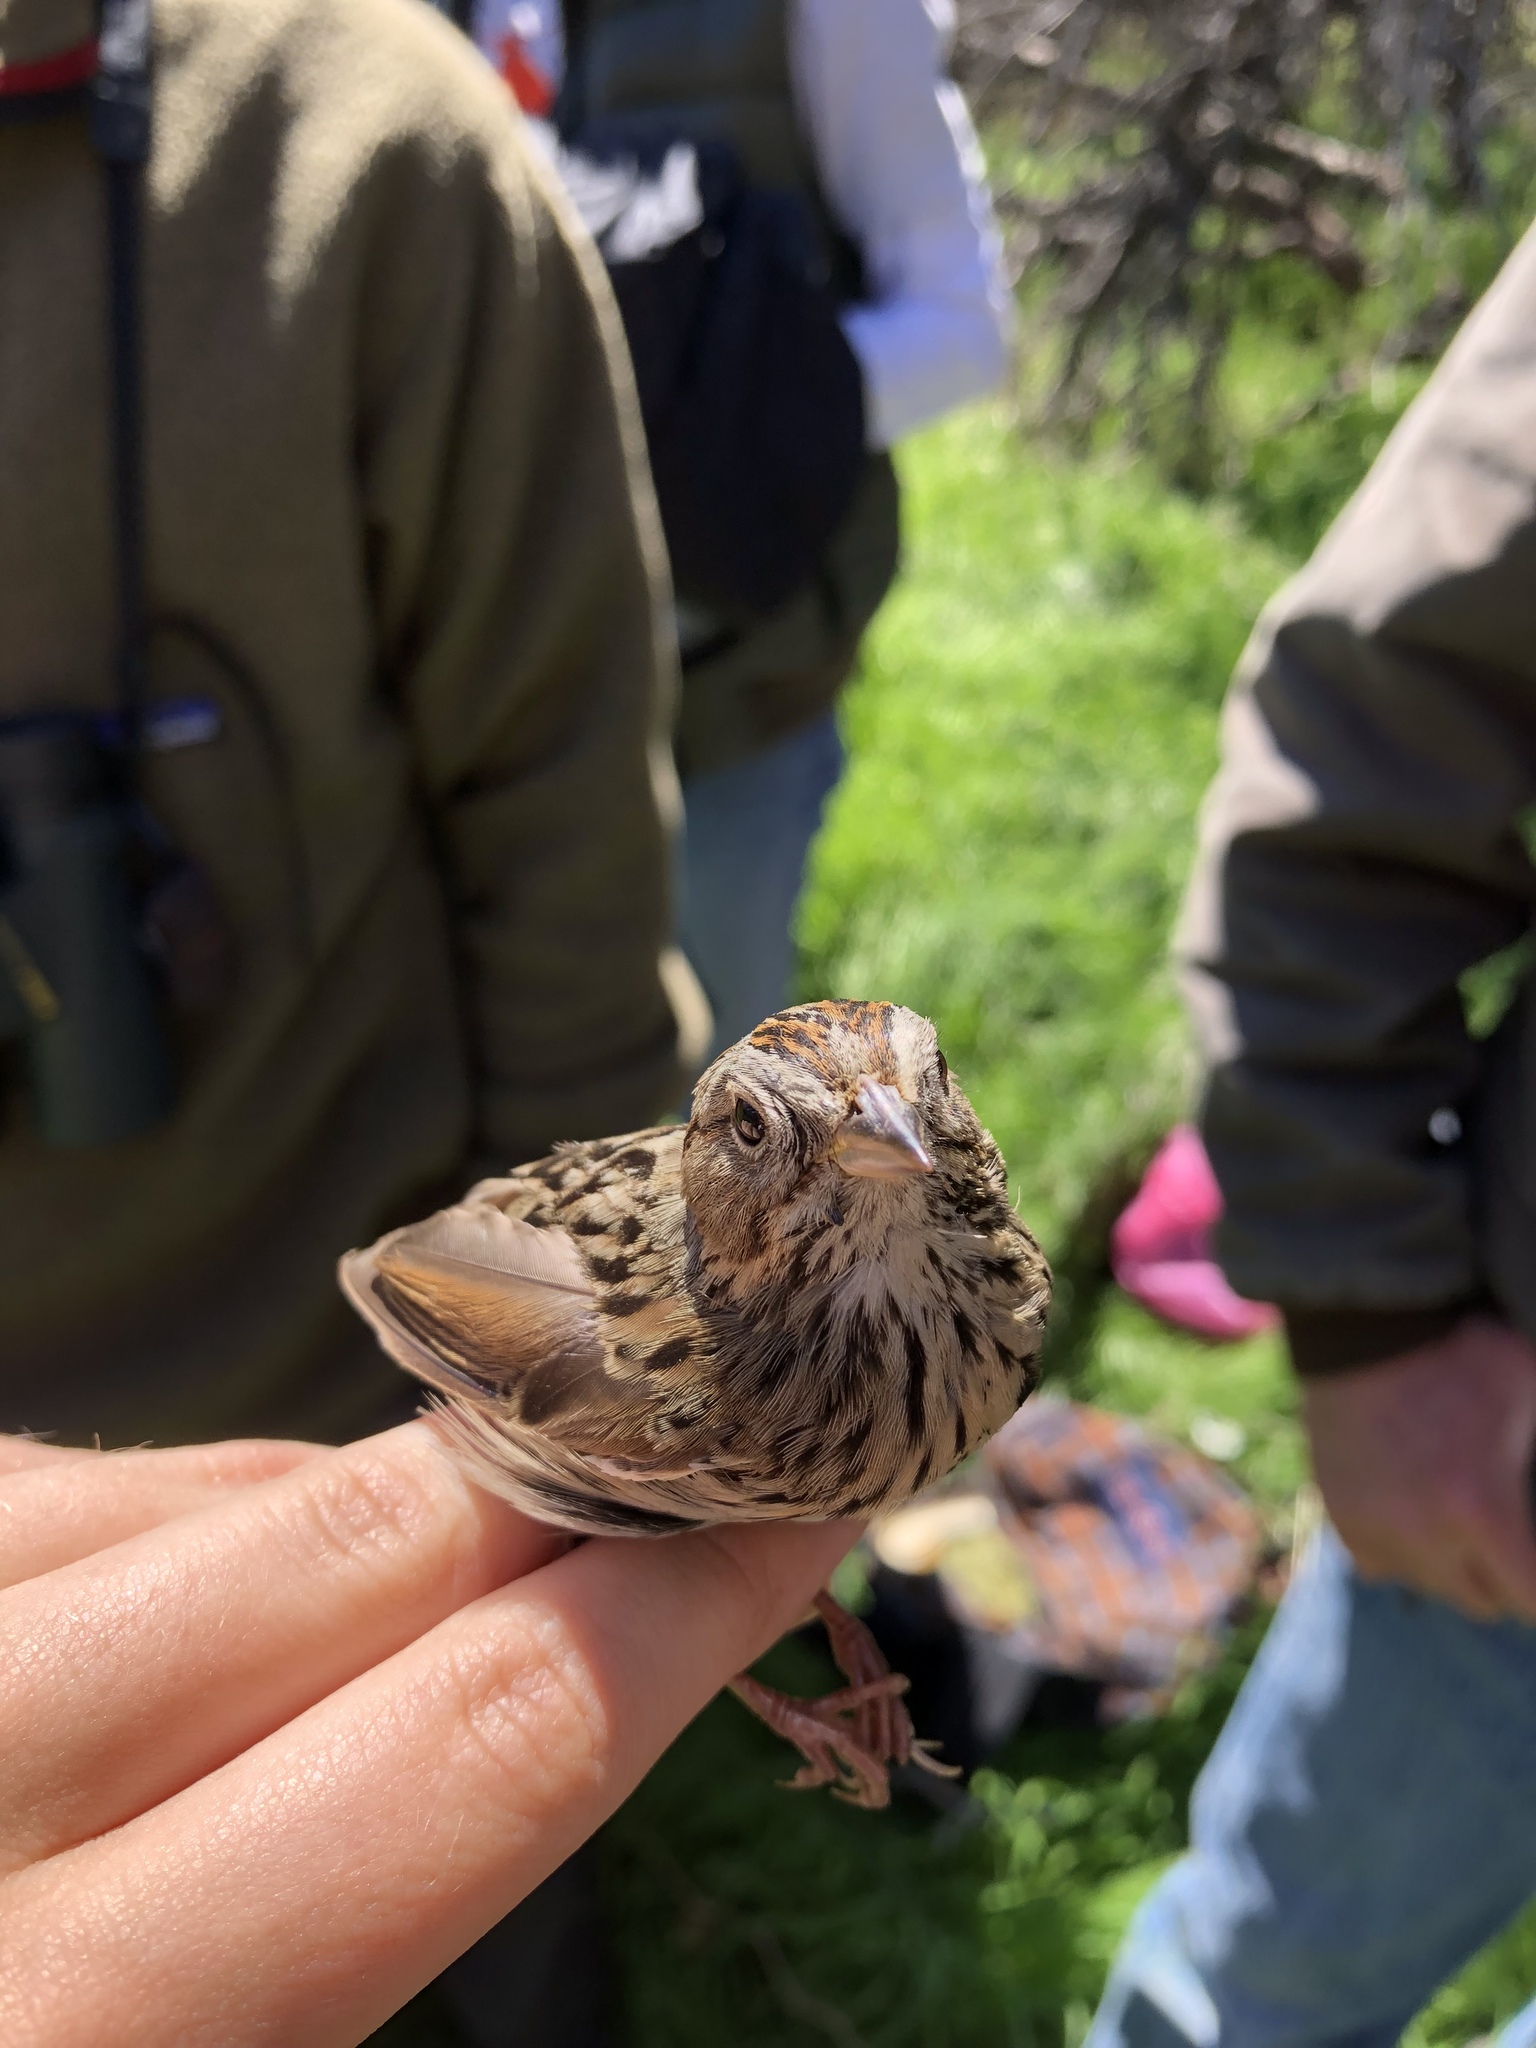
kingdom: Animalia
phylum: Chordata
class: Aves
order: Passeriformes
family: Passerellidae
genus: Melospiza
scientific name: Melospiza lincolnii
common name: Lincoln's sparrow
